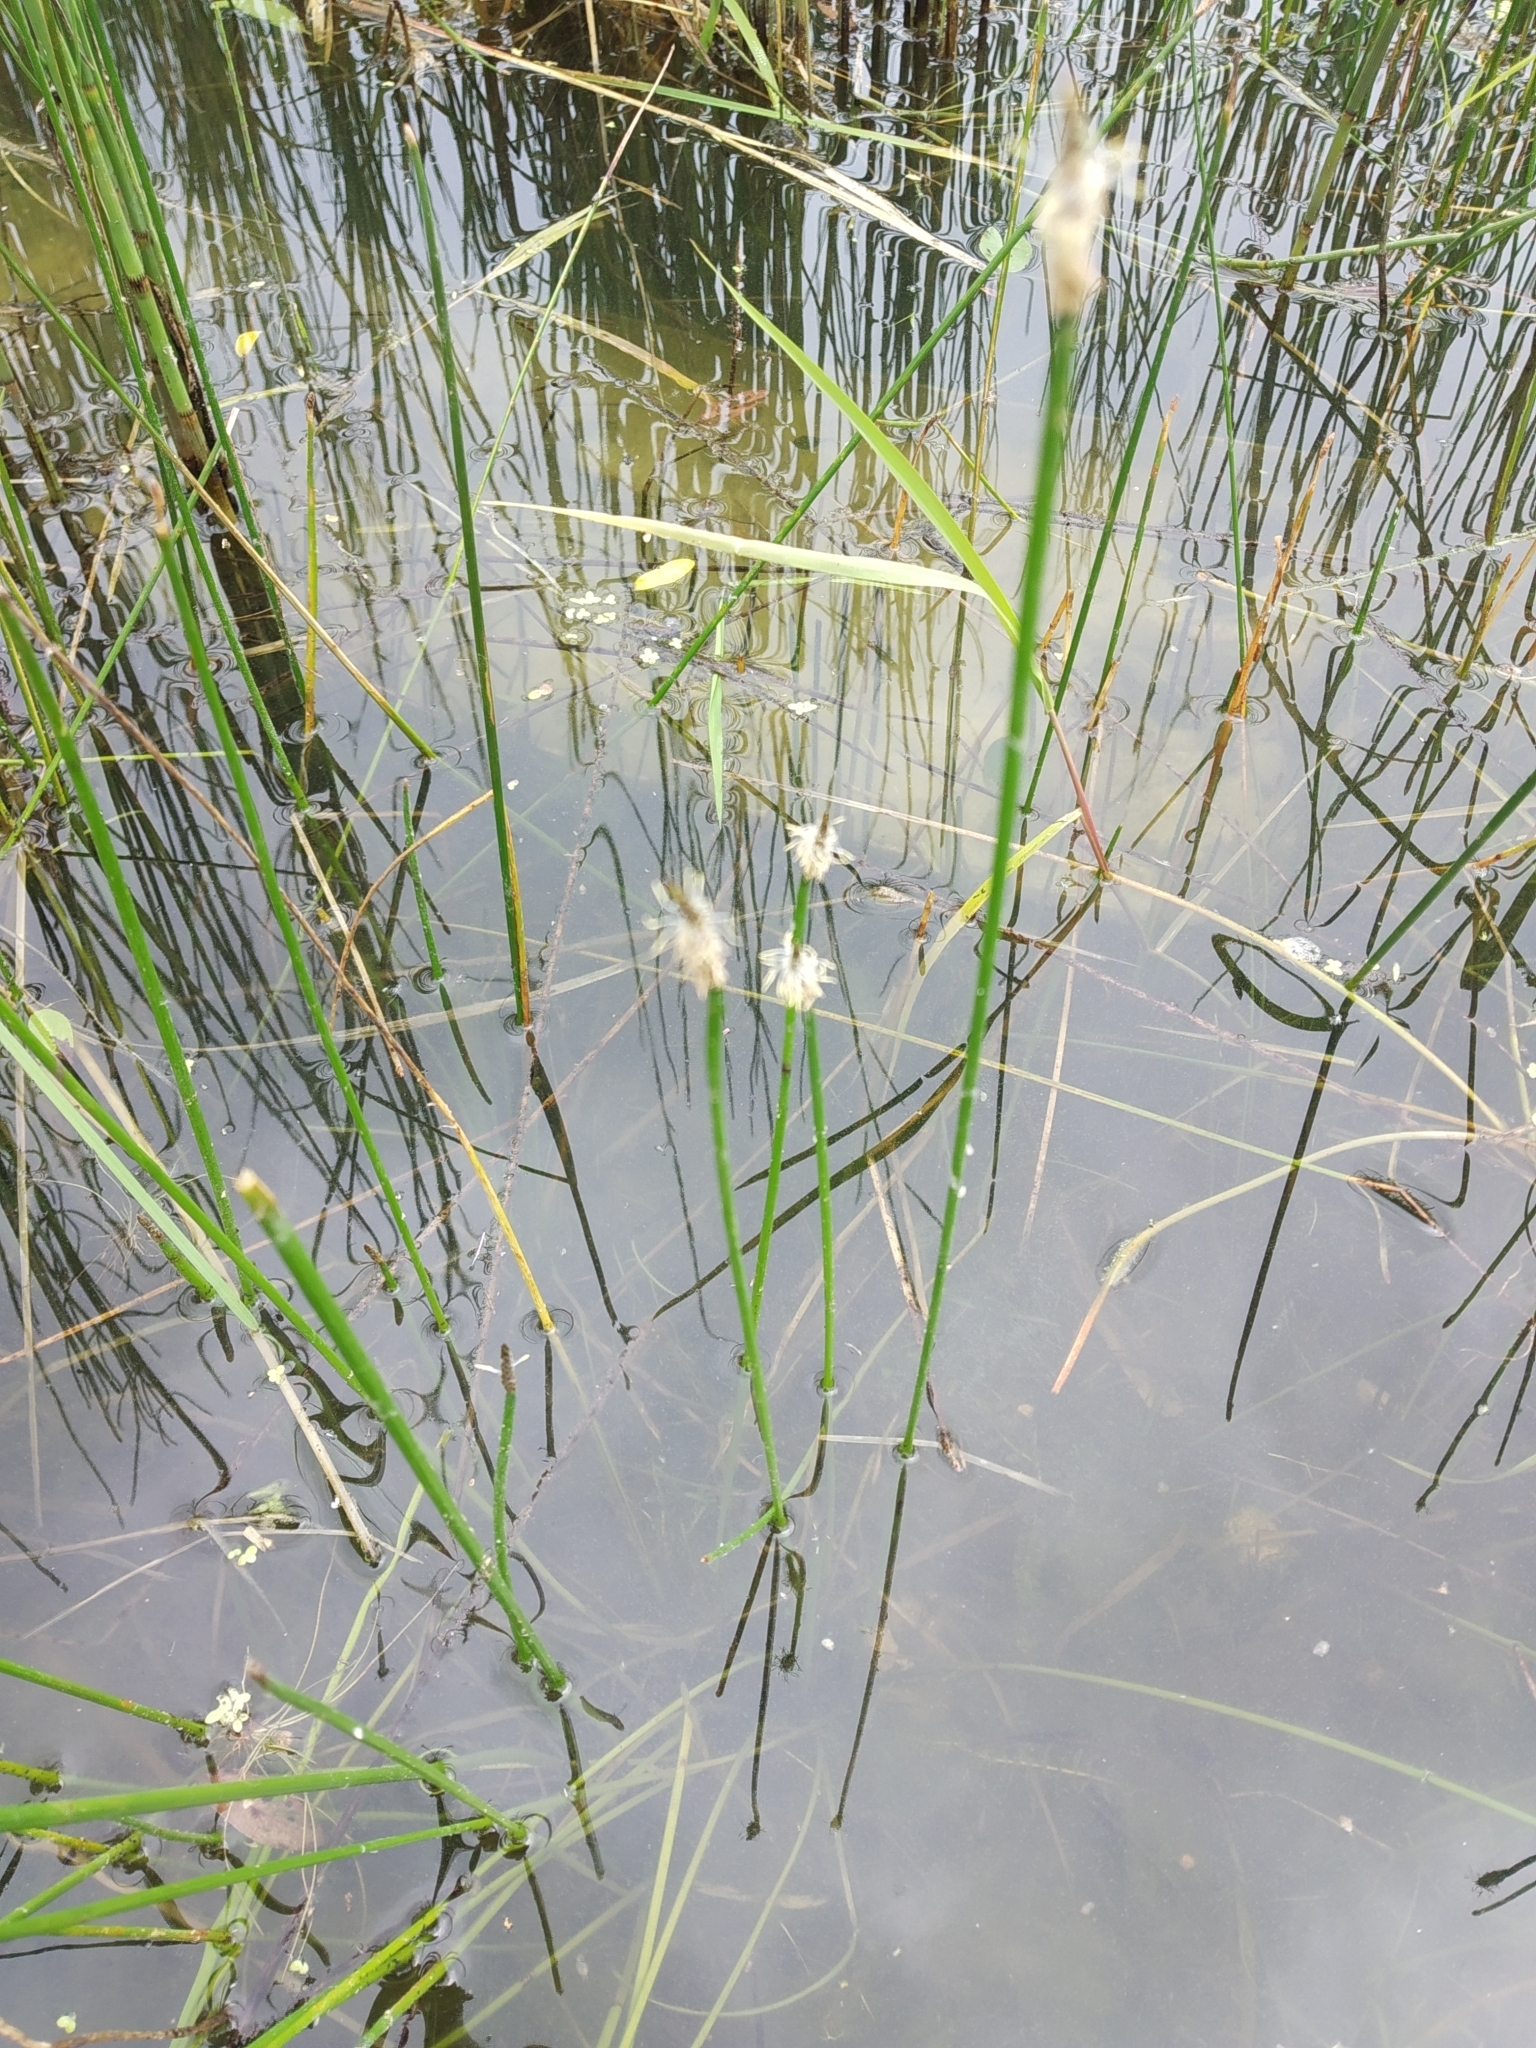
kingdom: Plantae
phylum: Tracheophyta
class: Liliopsida
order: Poales
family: Cyperaceae
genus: Eleocharis
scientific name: Eleocharis palustris
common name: Common spike-rush
